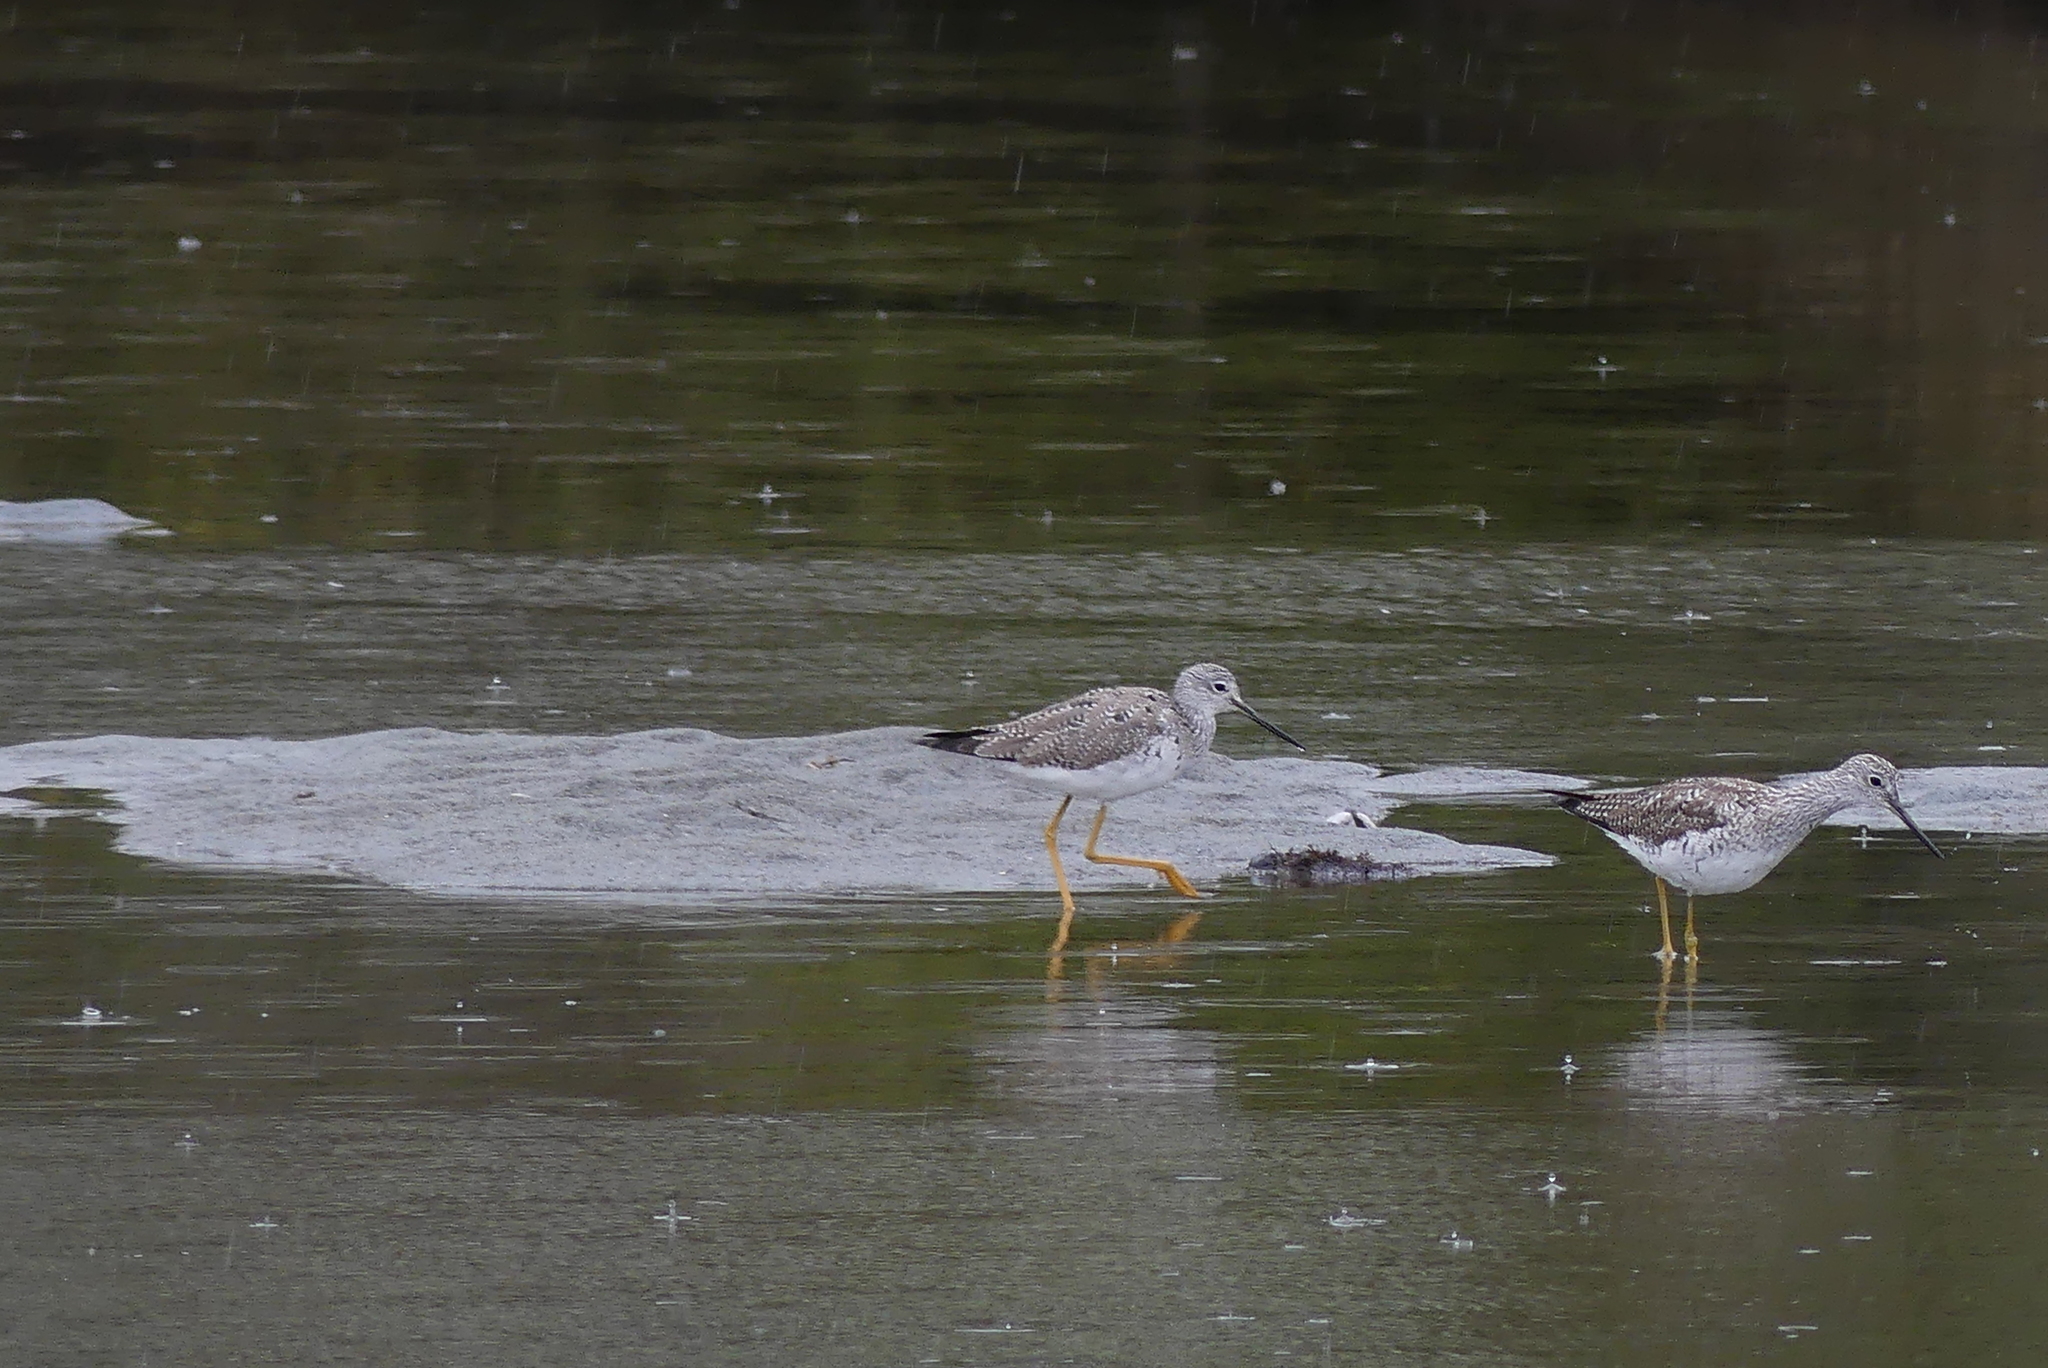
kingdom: Animalia
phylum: Chordata
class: Aves
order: Charadriiformes
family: Scolopacidae
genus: Tringa
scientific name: Tringa melanoleuca
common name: Greater yellowlegs
